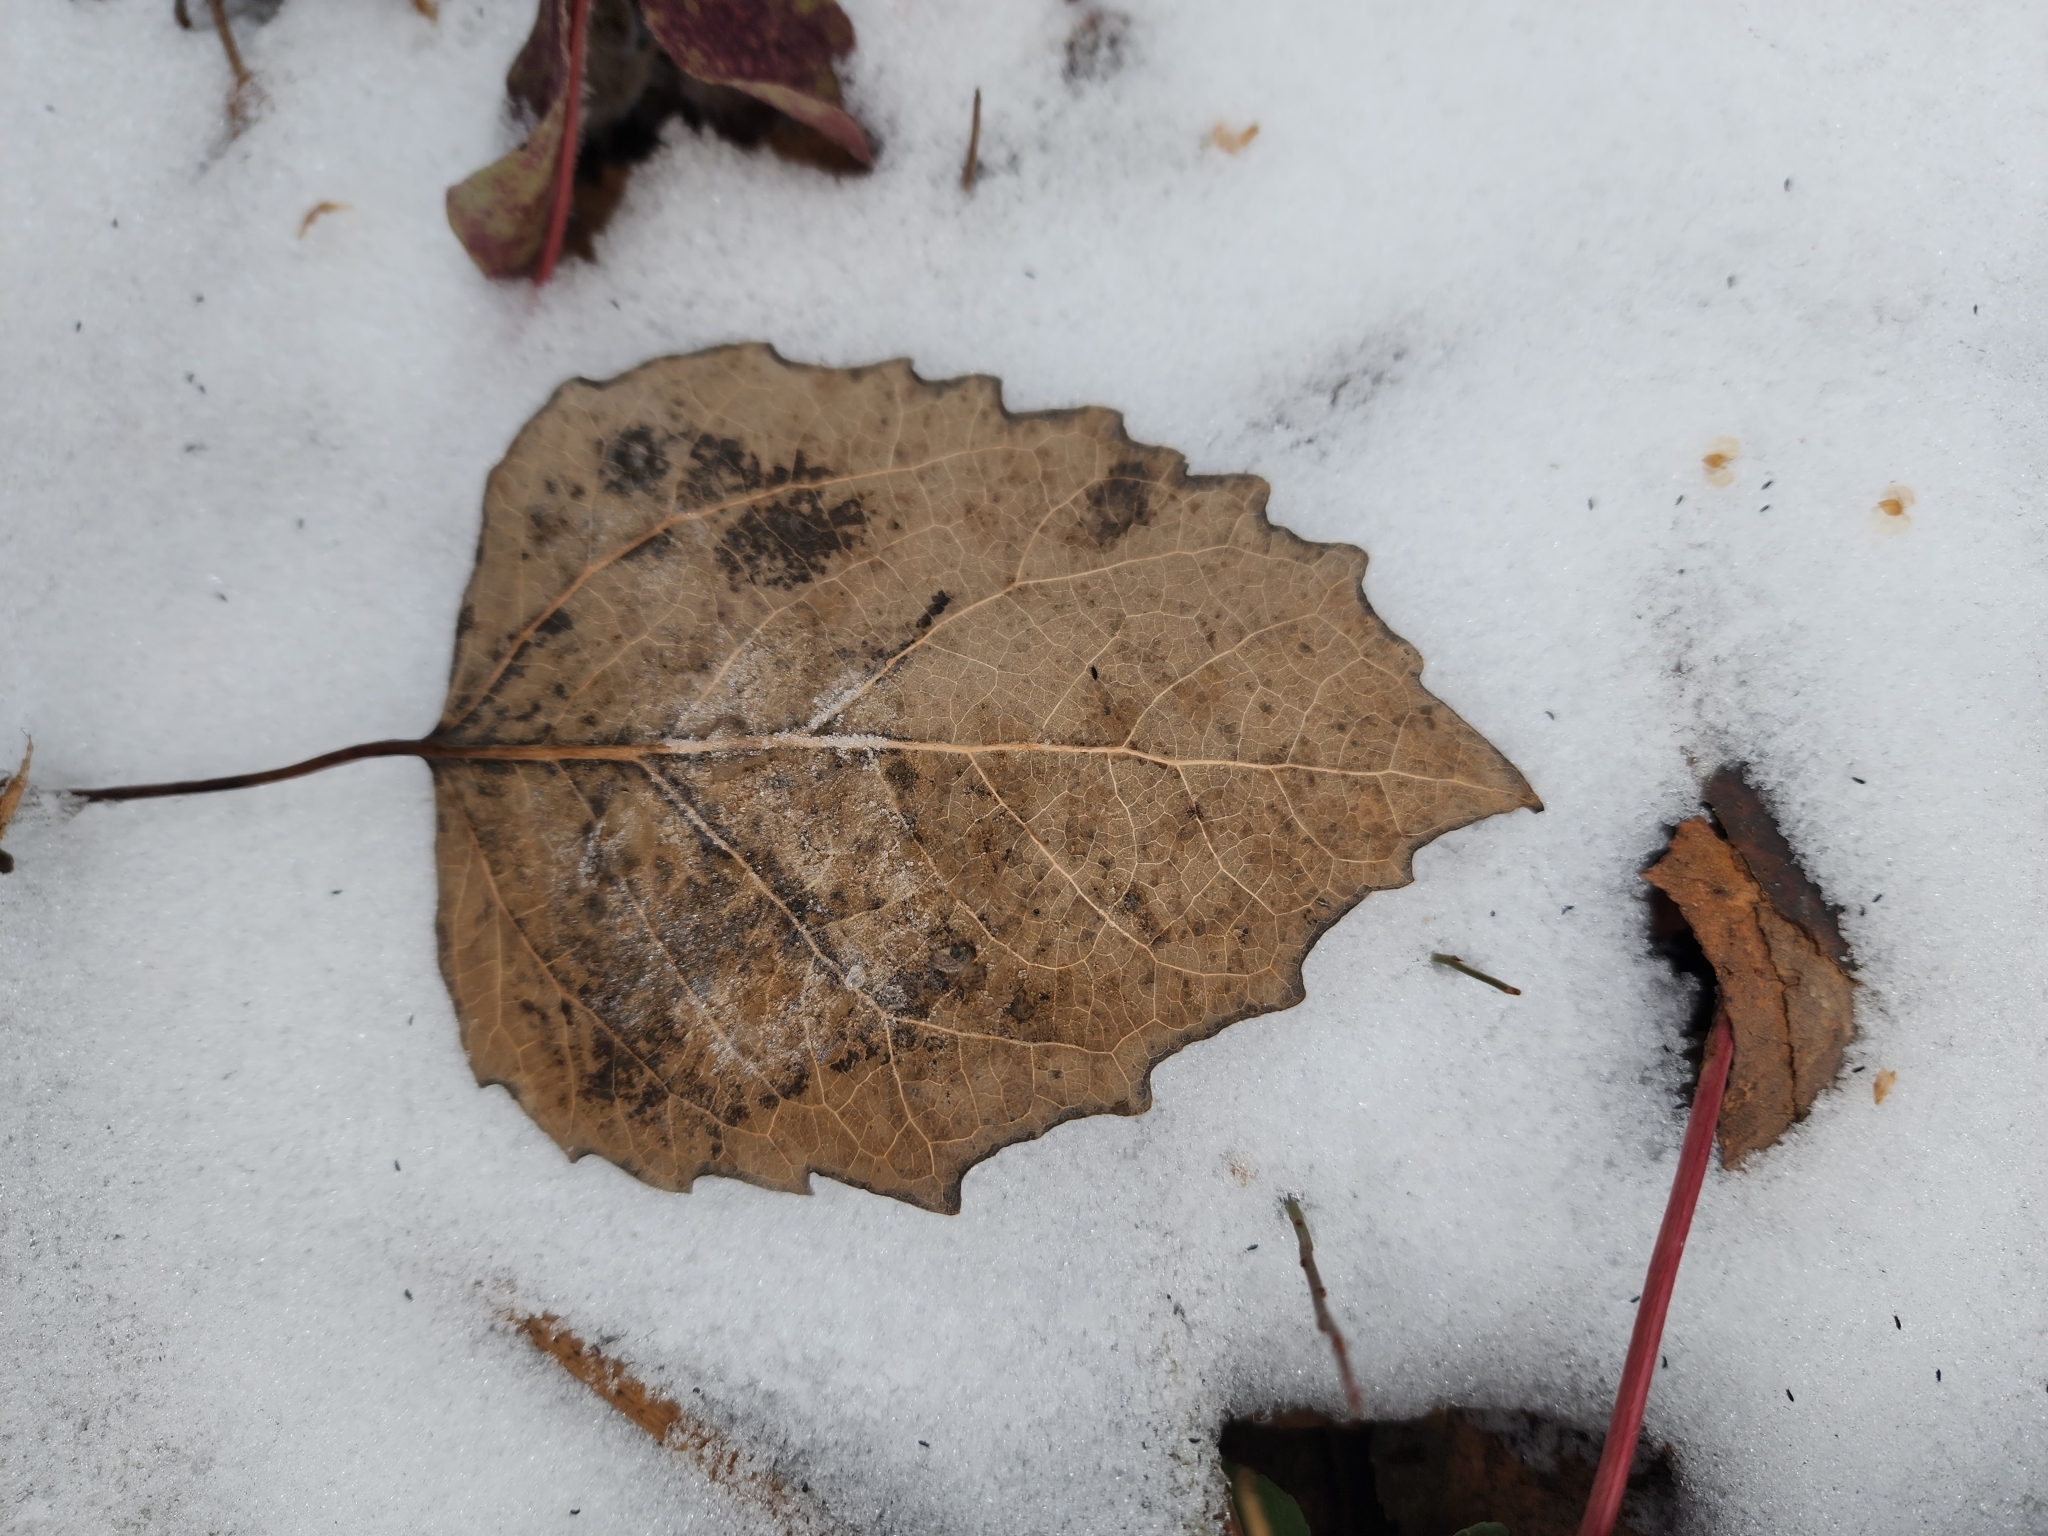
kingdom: Plantae
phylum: Tracheophyta
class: Magnoliopsida
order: Malpighiales
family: Salicaceae
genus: Populus
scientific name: Populus grandidentata
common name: Bigtooth aspen
